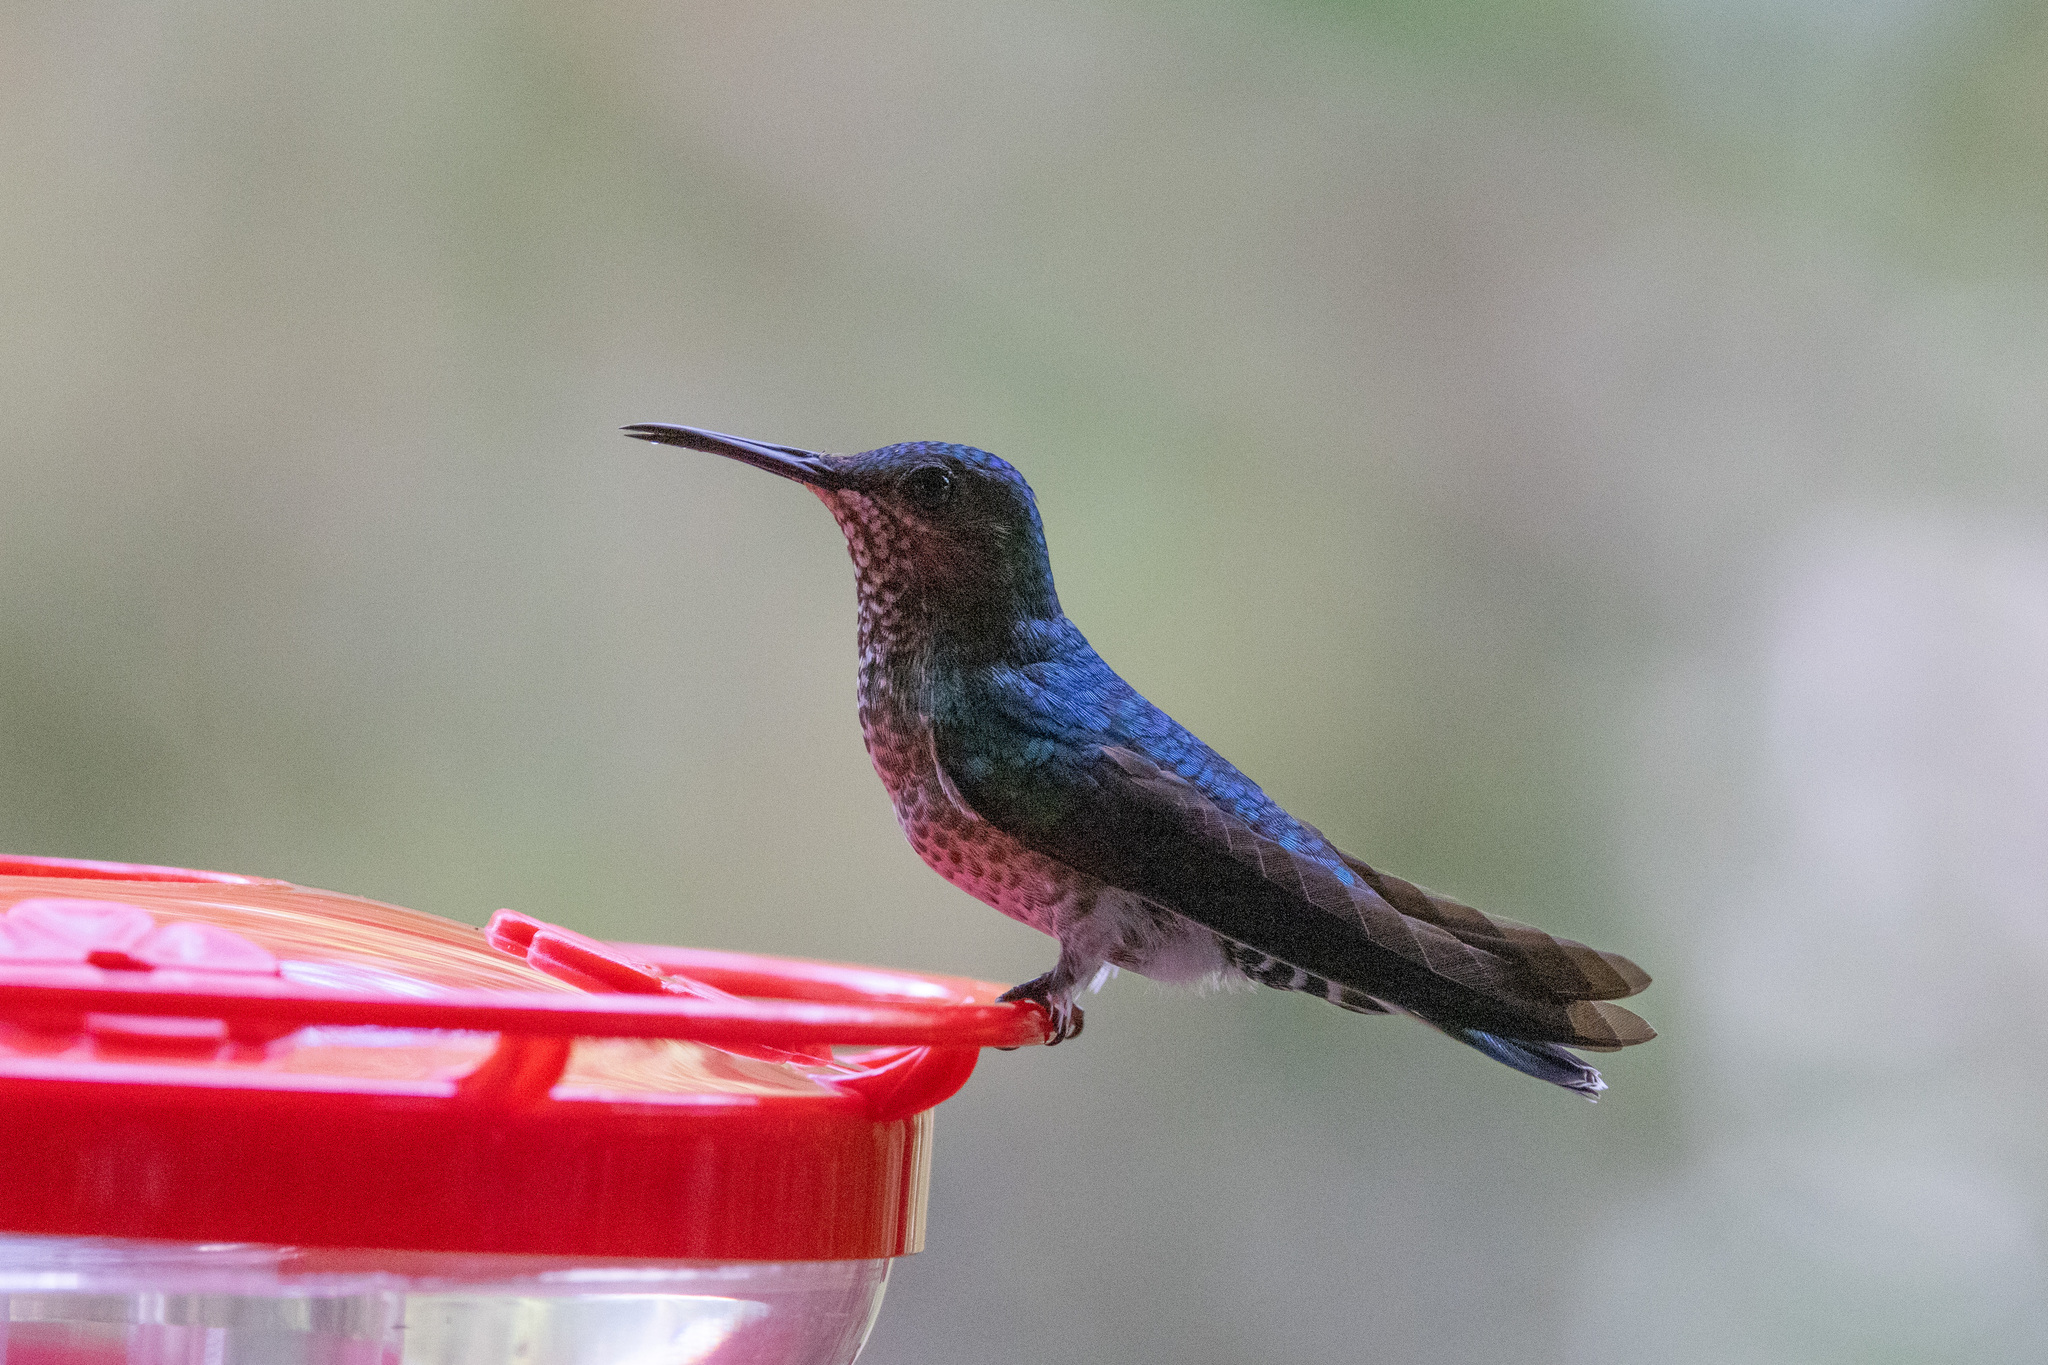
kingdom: Animalia
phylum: Chordata
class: Aves
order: Apodiformes
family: Trochilidae
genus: Florisuga
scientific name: Florisuga mellivora
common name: White-necked jacobin
